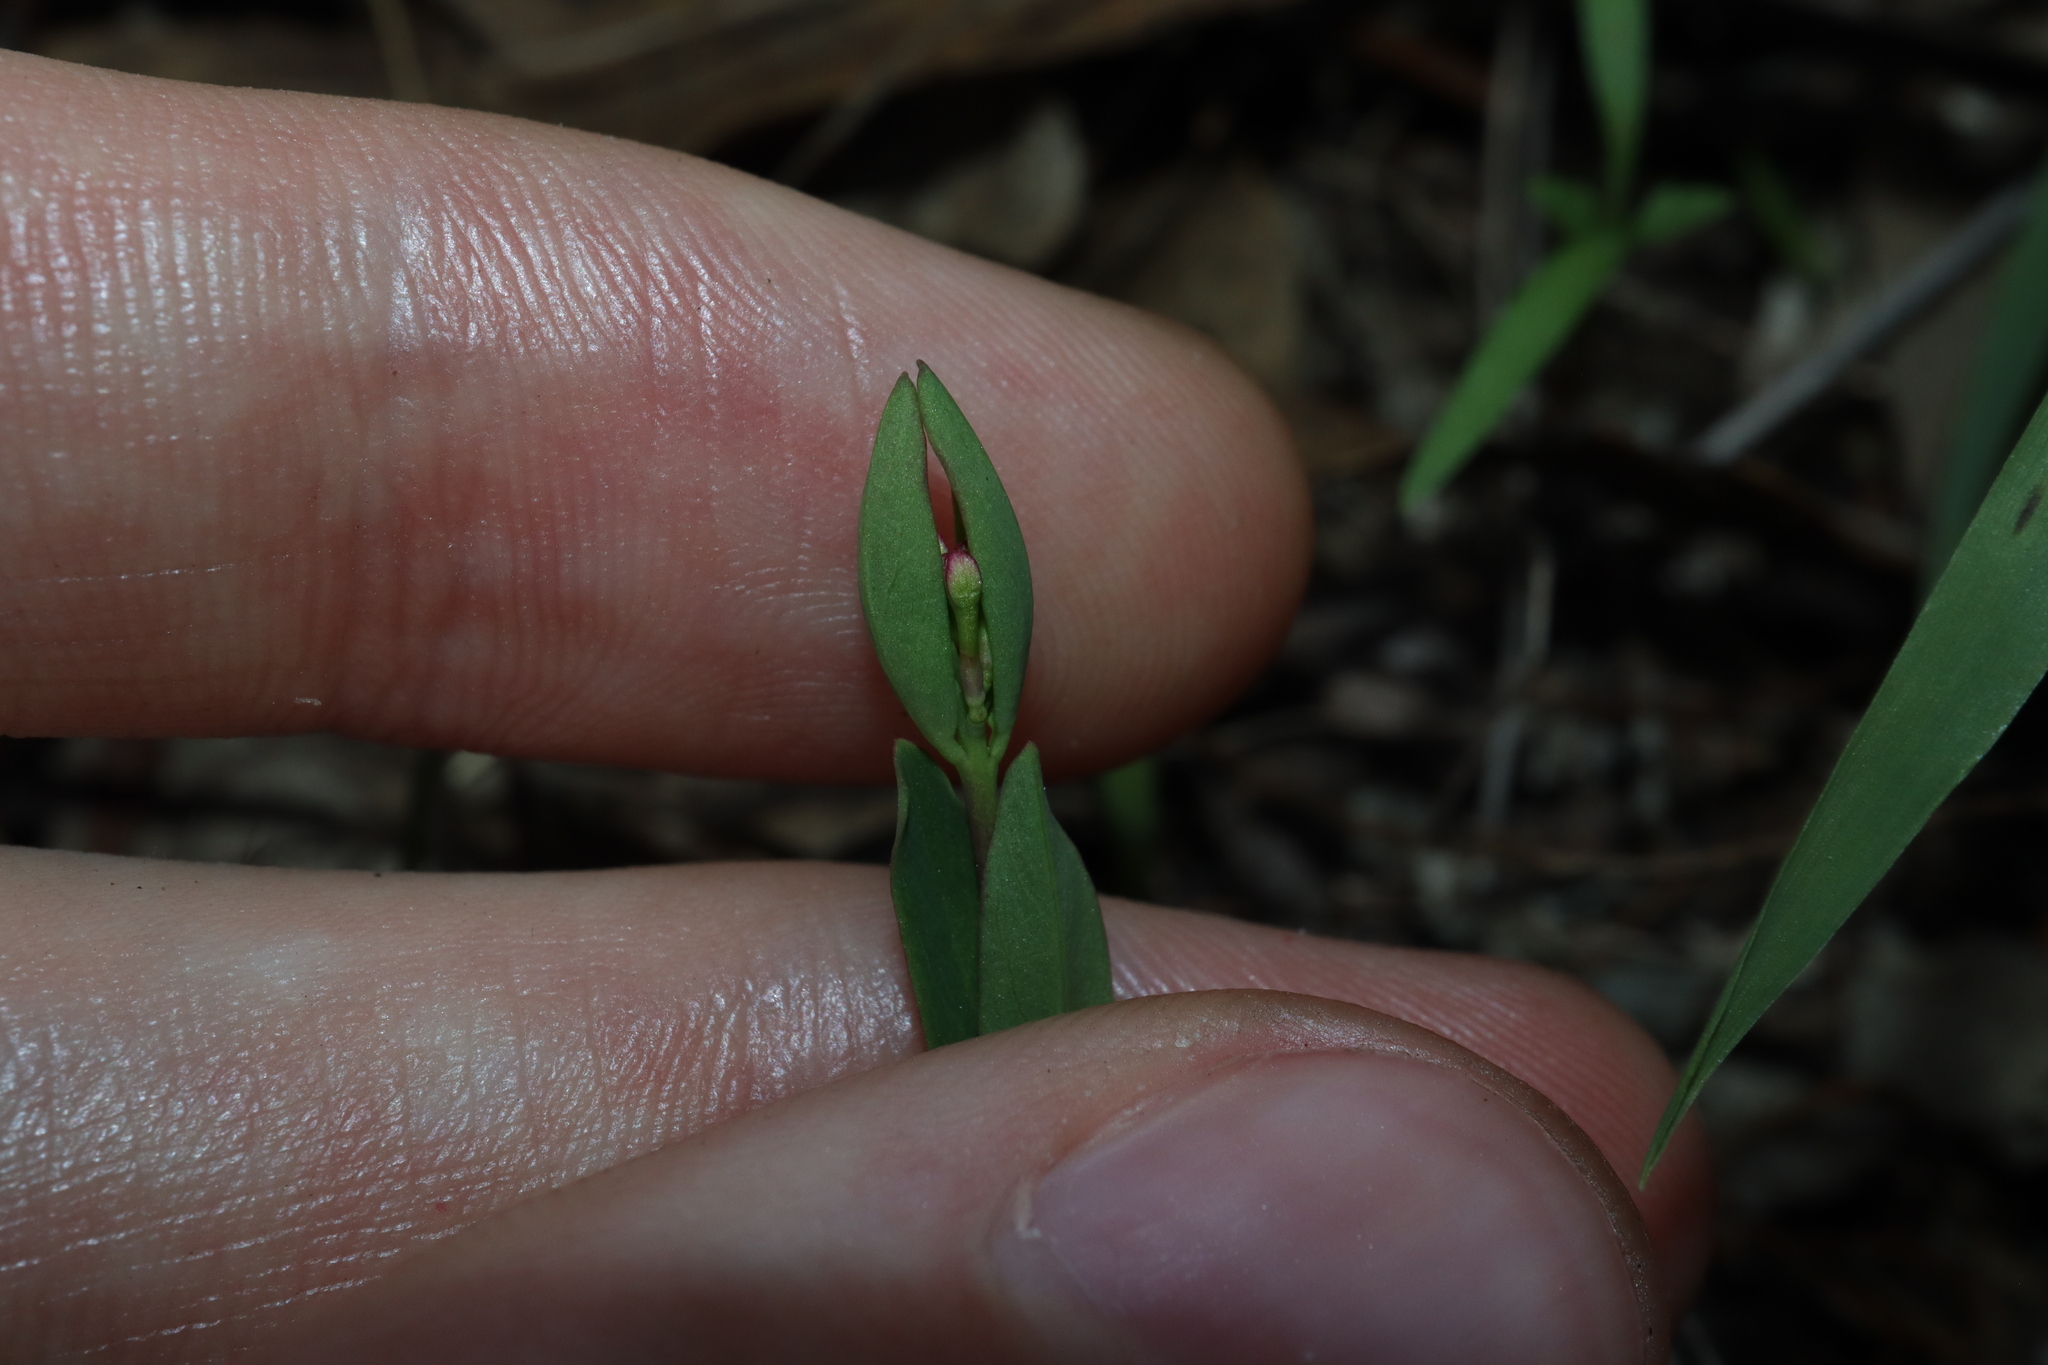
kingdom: Plantae
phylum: Tracheophyta
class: Magnoliopsida
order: Malvales
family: Thymelaeaceae
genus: Pimelea
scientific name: Pimelea spicata
